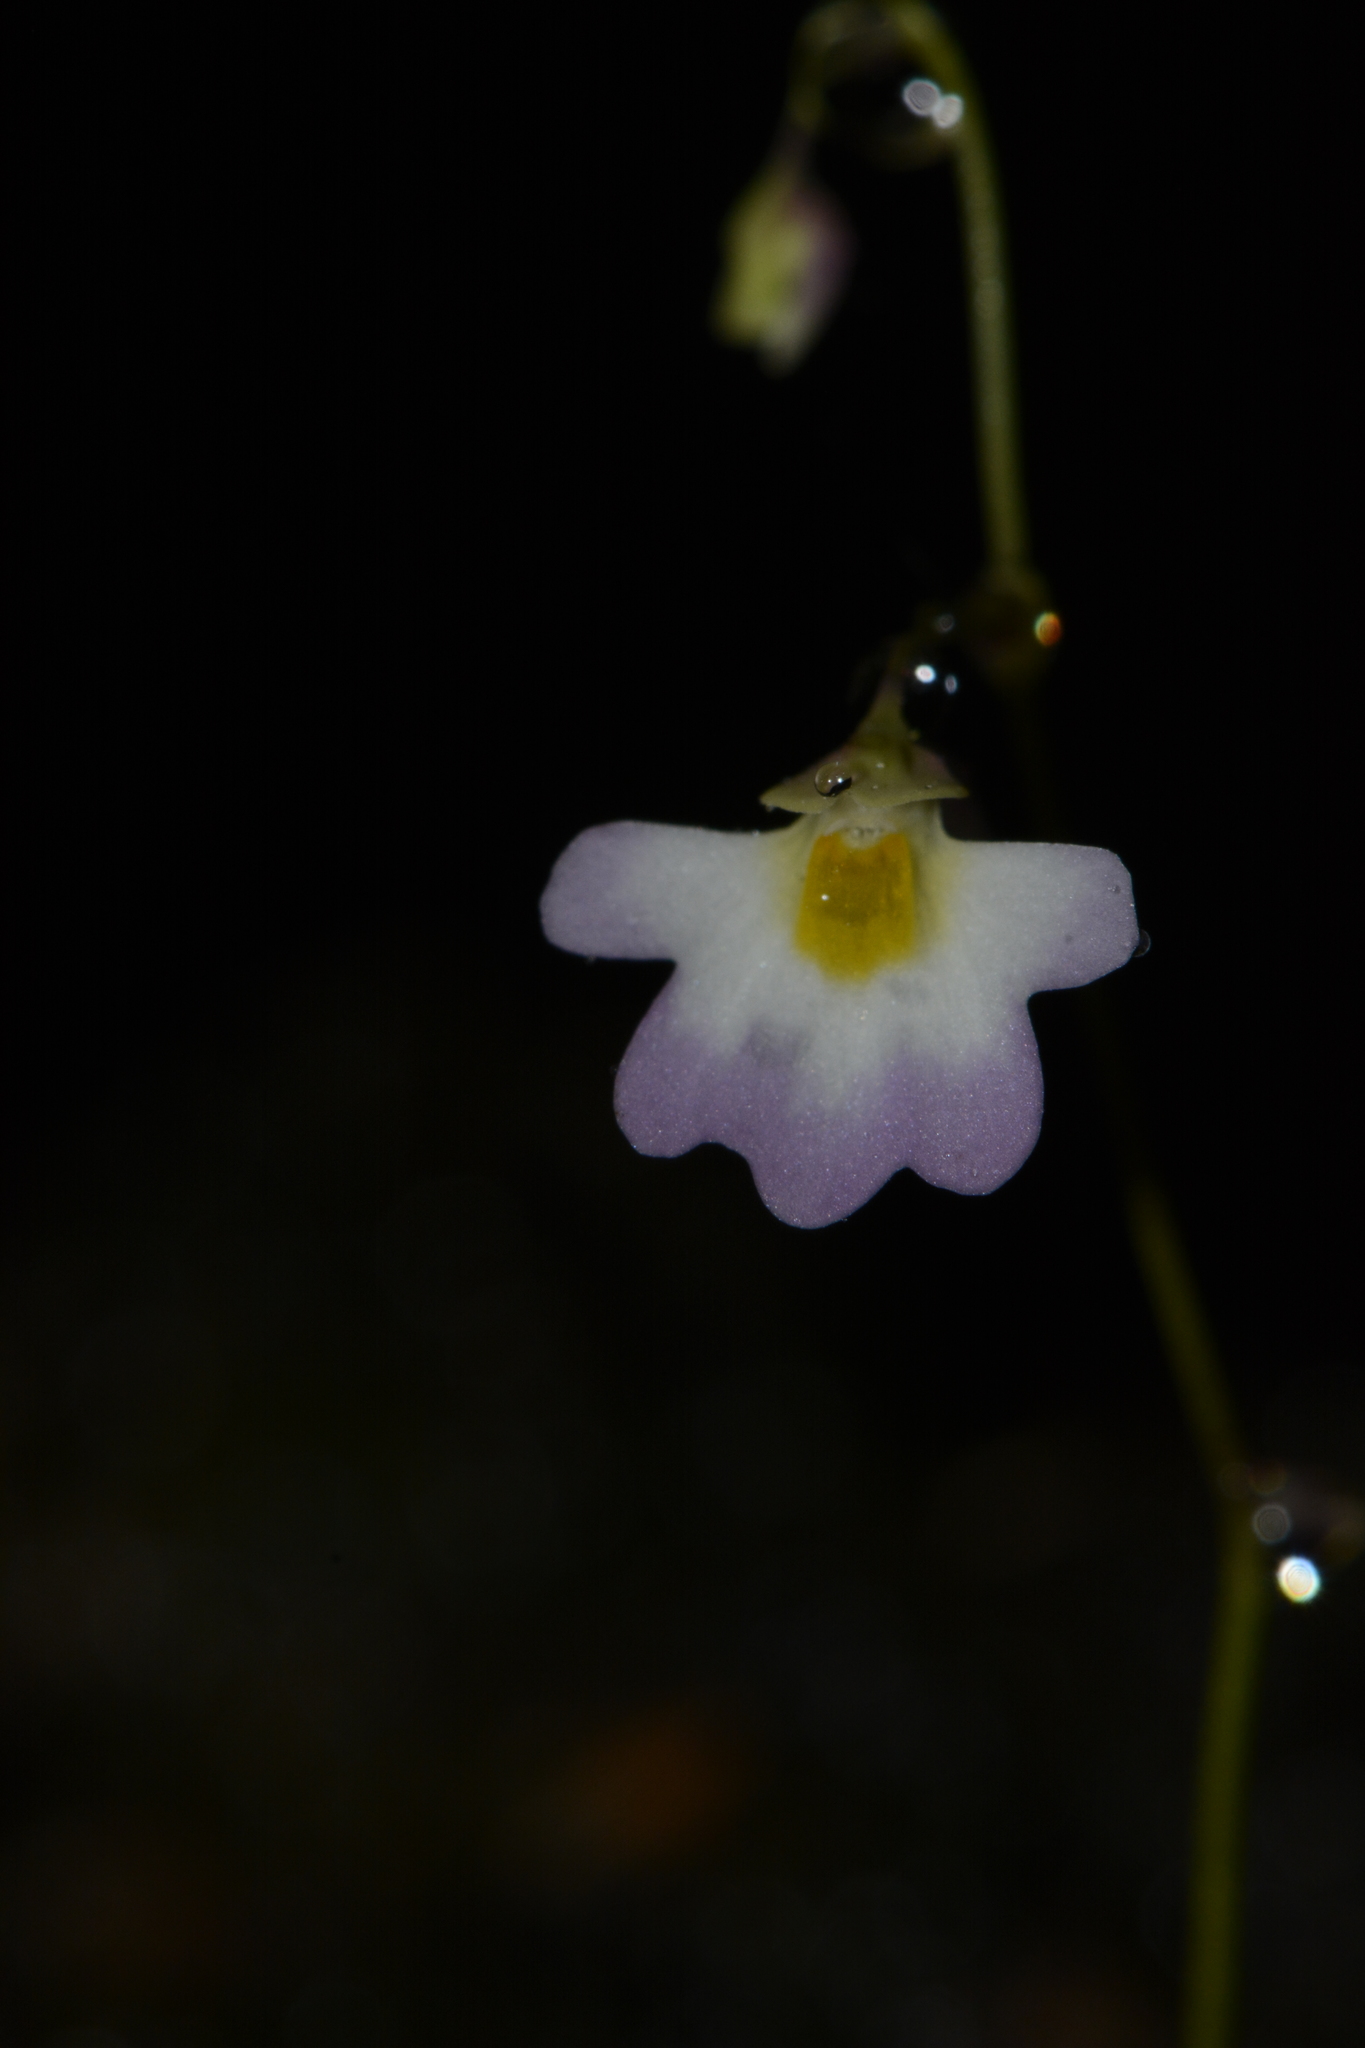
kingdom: Plantae
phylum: Tracheophyta
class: Magnoliopsida
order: Lamiales
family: Lentibulariaceae
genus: Utricularia
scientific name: Utricularia striatula
